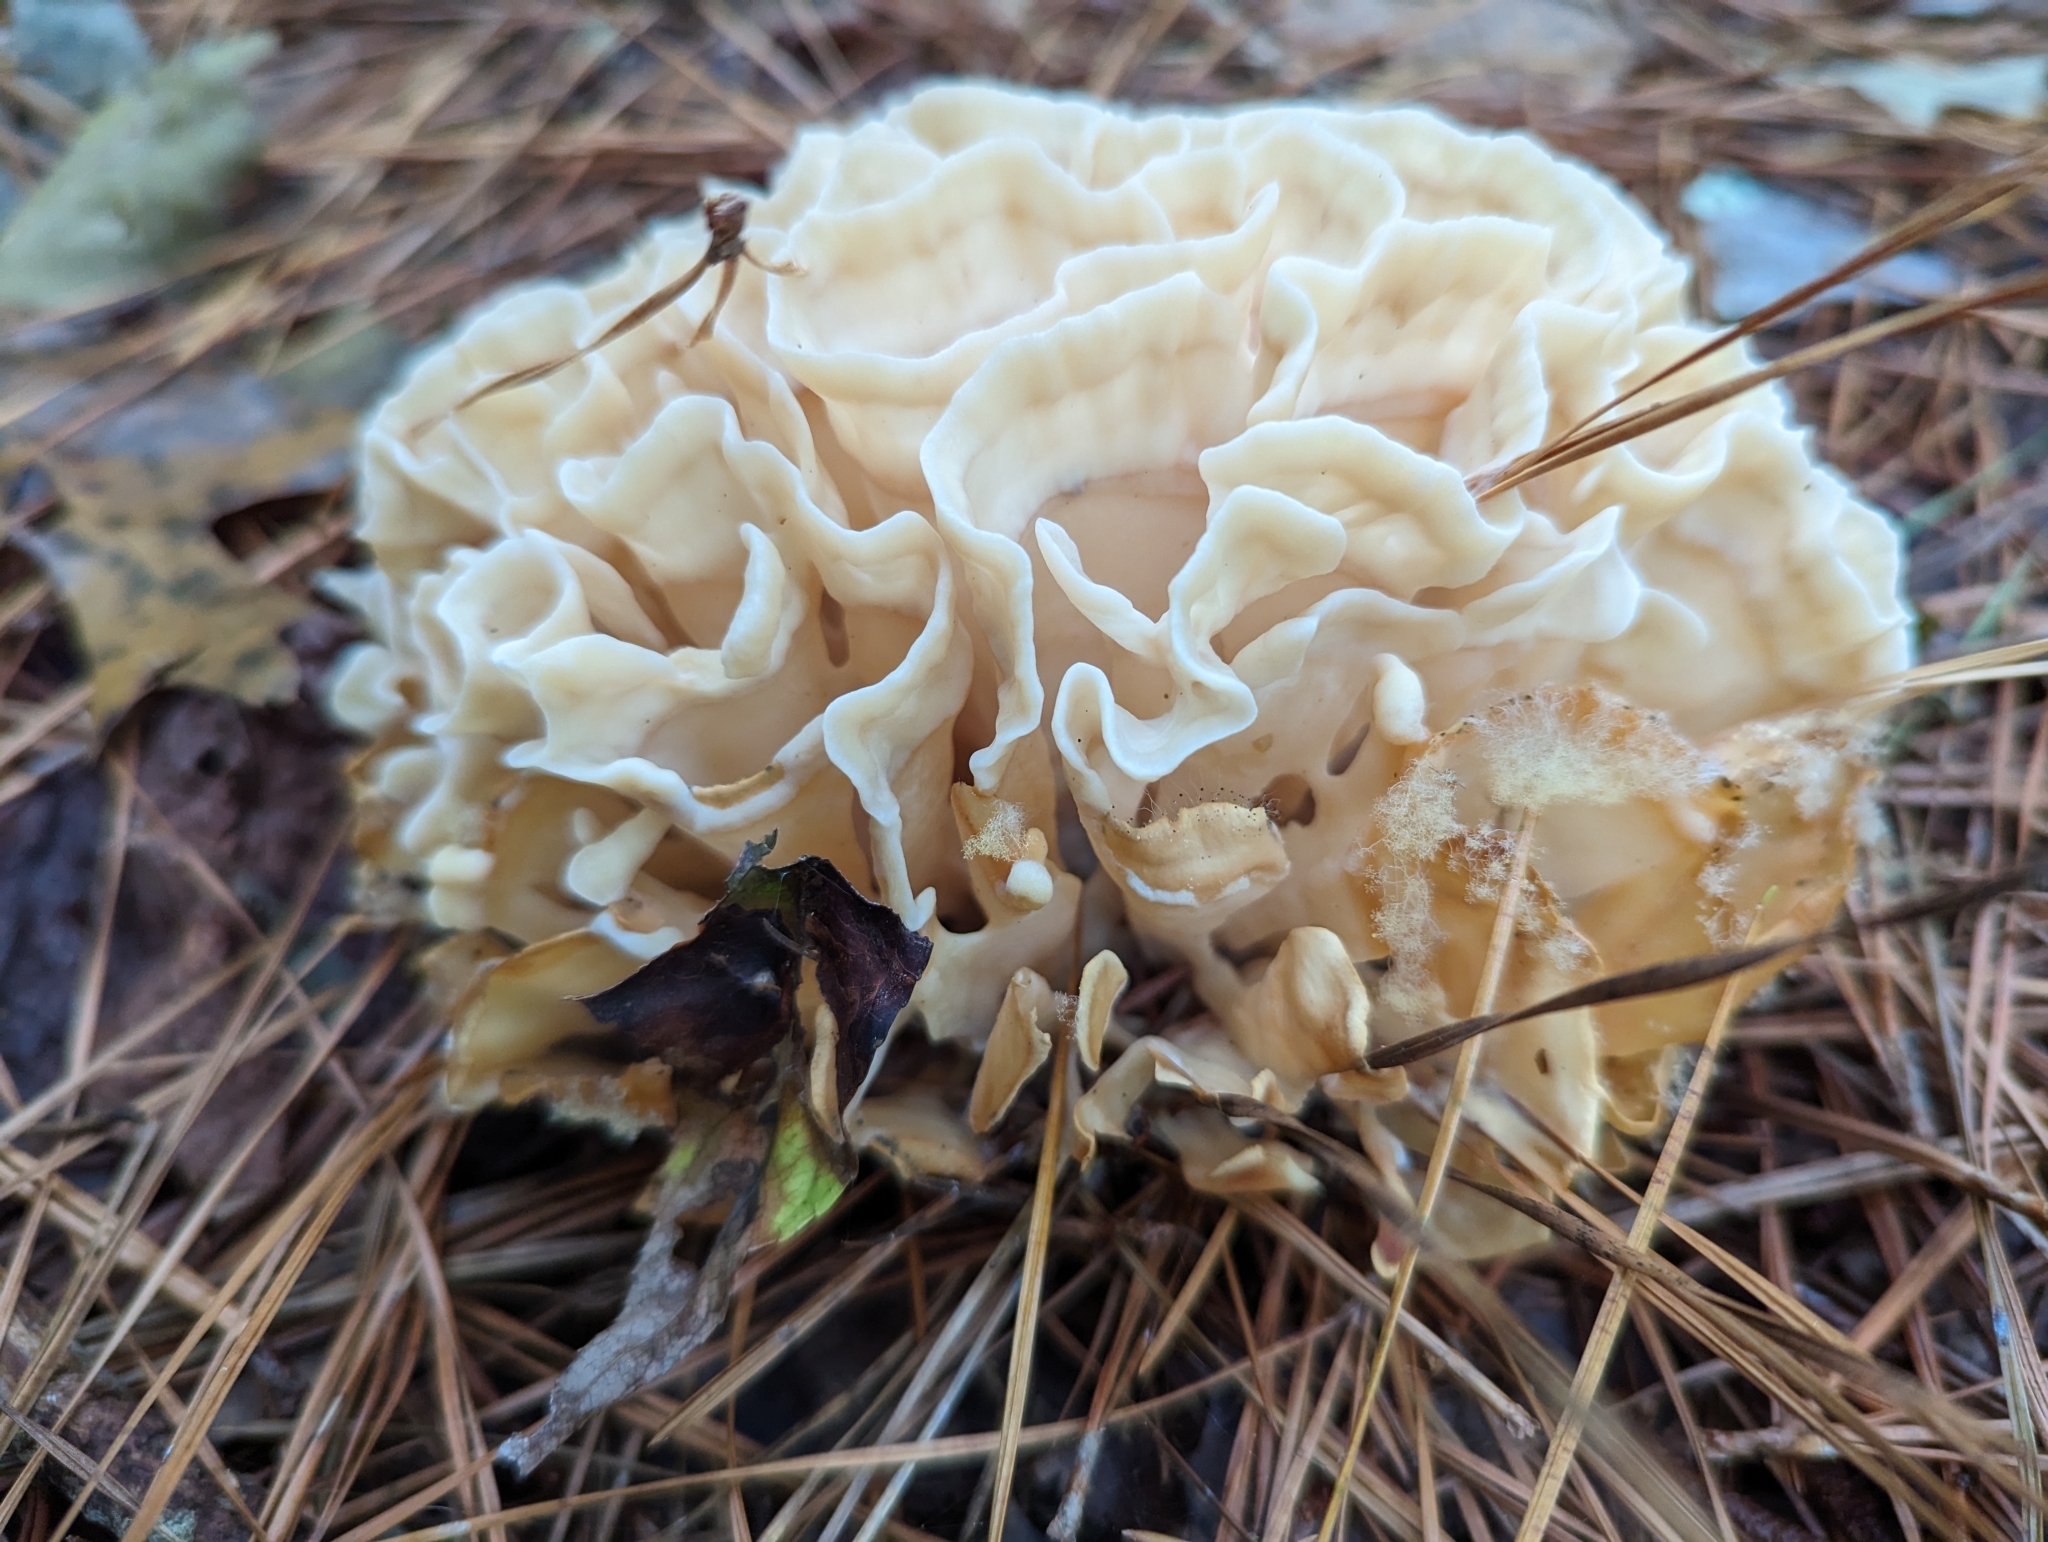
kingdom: Fungi
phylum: Basidiomycota
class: Agaricomycetes
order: Polyporales
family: Sparassidaceae
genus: Sparassis
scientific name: Sparassis spathulata
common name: Eastern cauliflower mushroom
